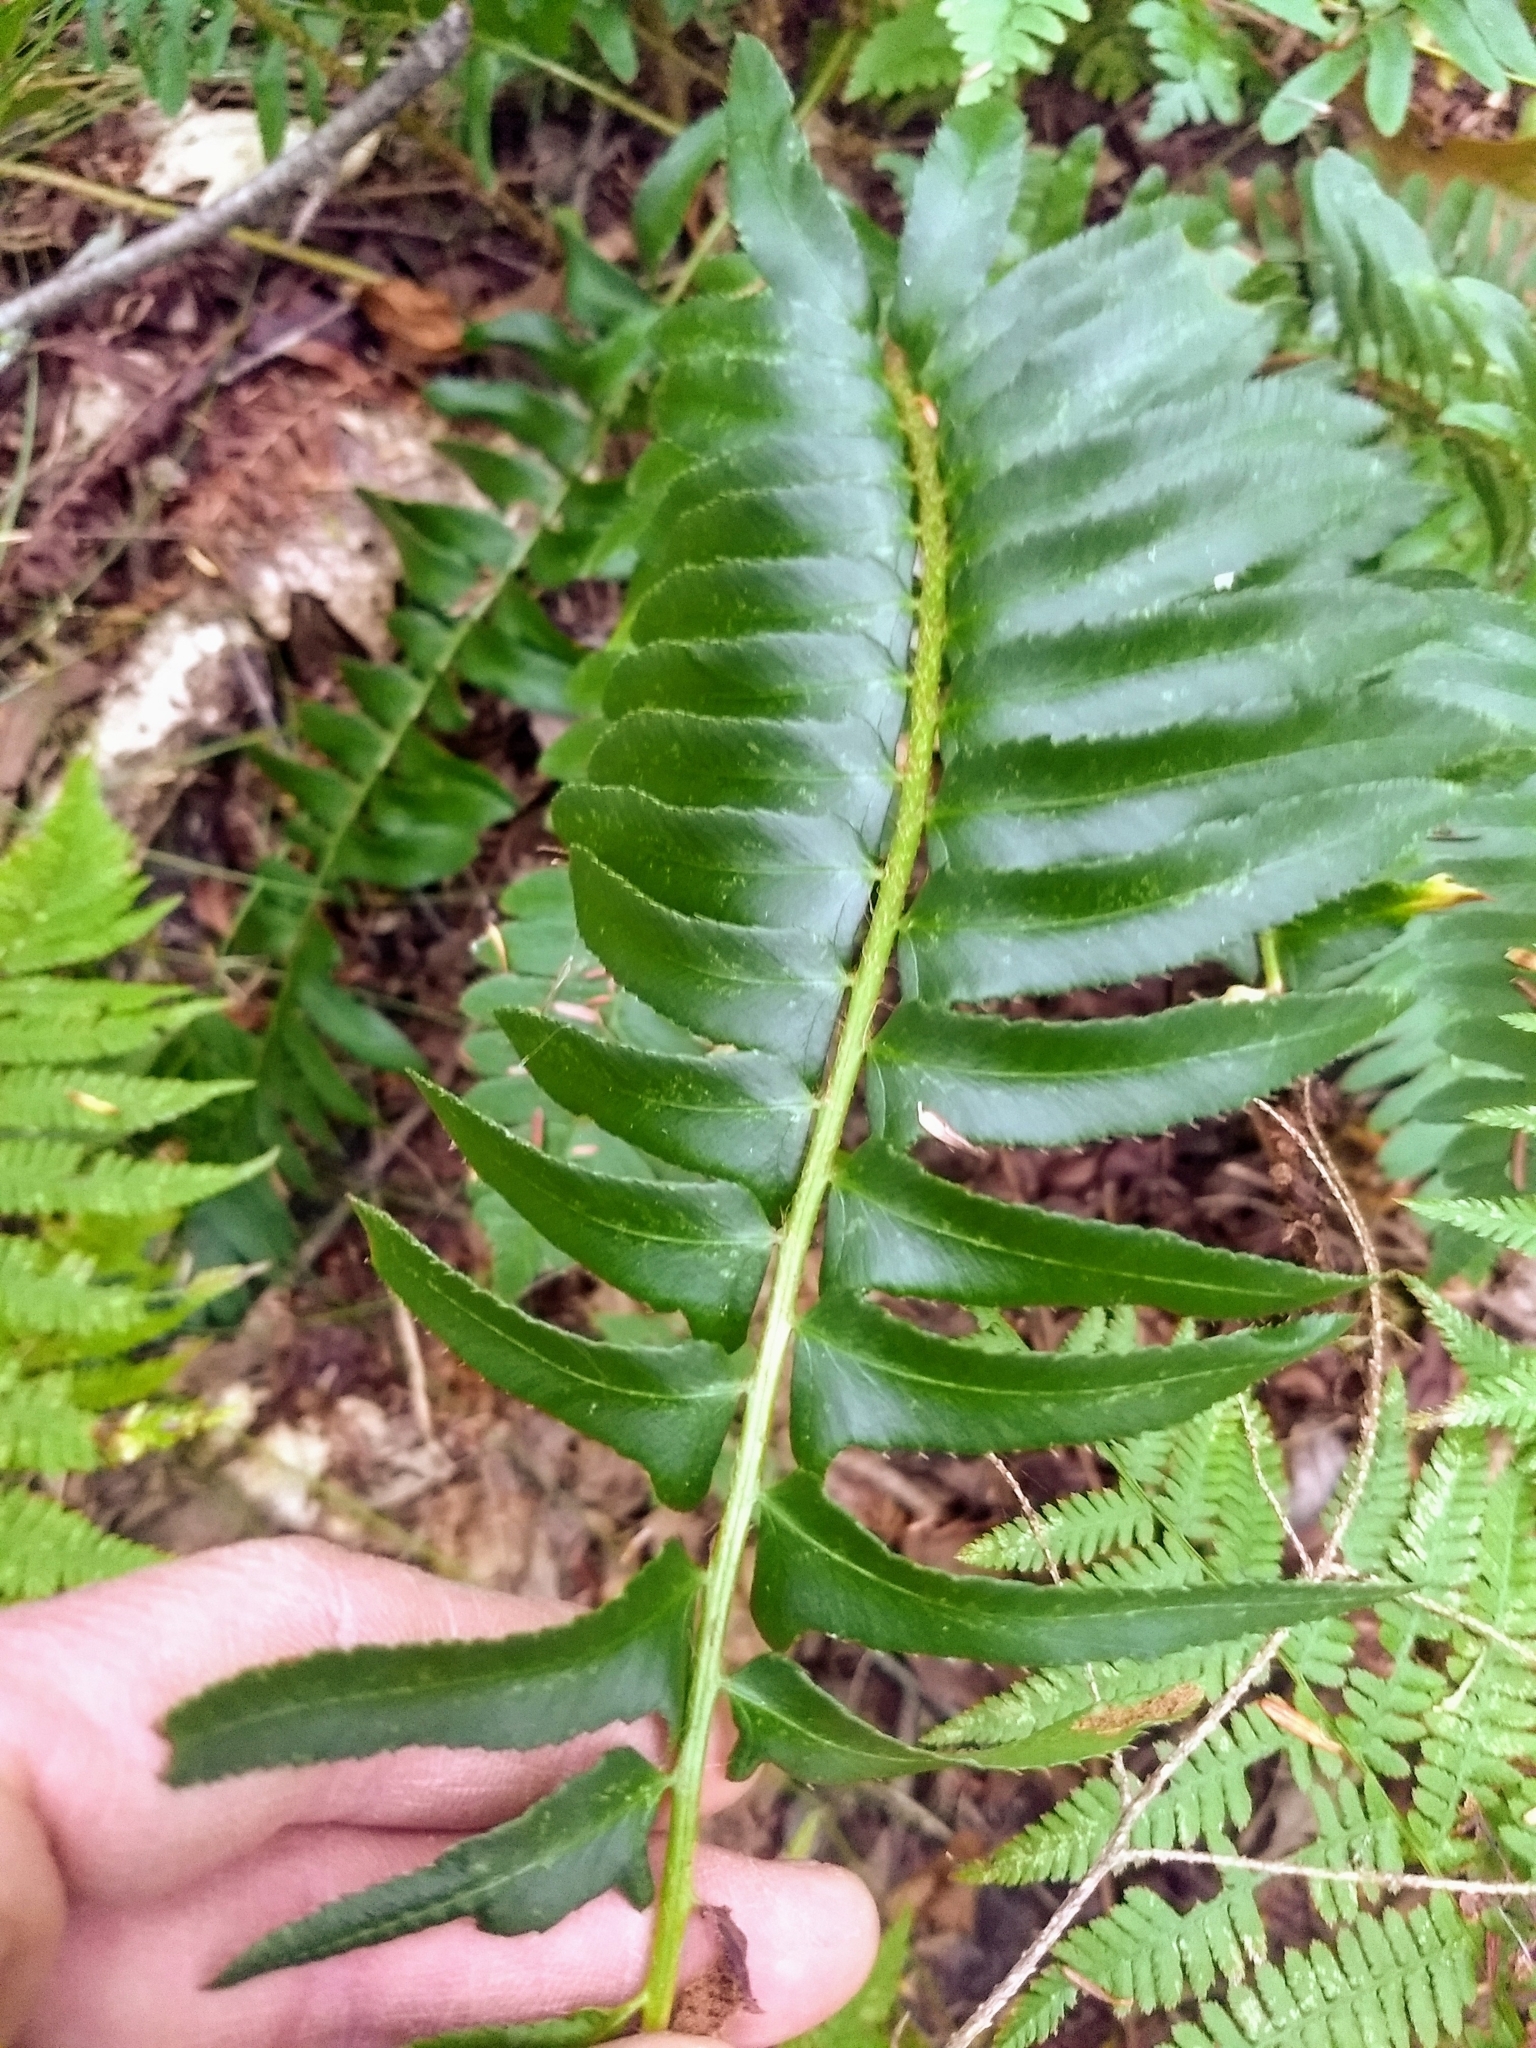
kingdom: Plantae
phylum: Tracheophyta
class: Polypodiopsida
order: Polypodiales
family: Dryopteridaceae
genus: Polystichum
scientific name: Polystichum acrostichoides
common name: Christmas fern
